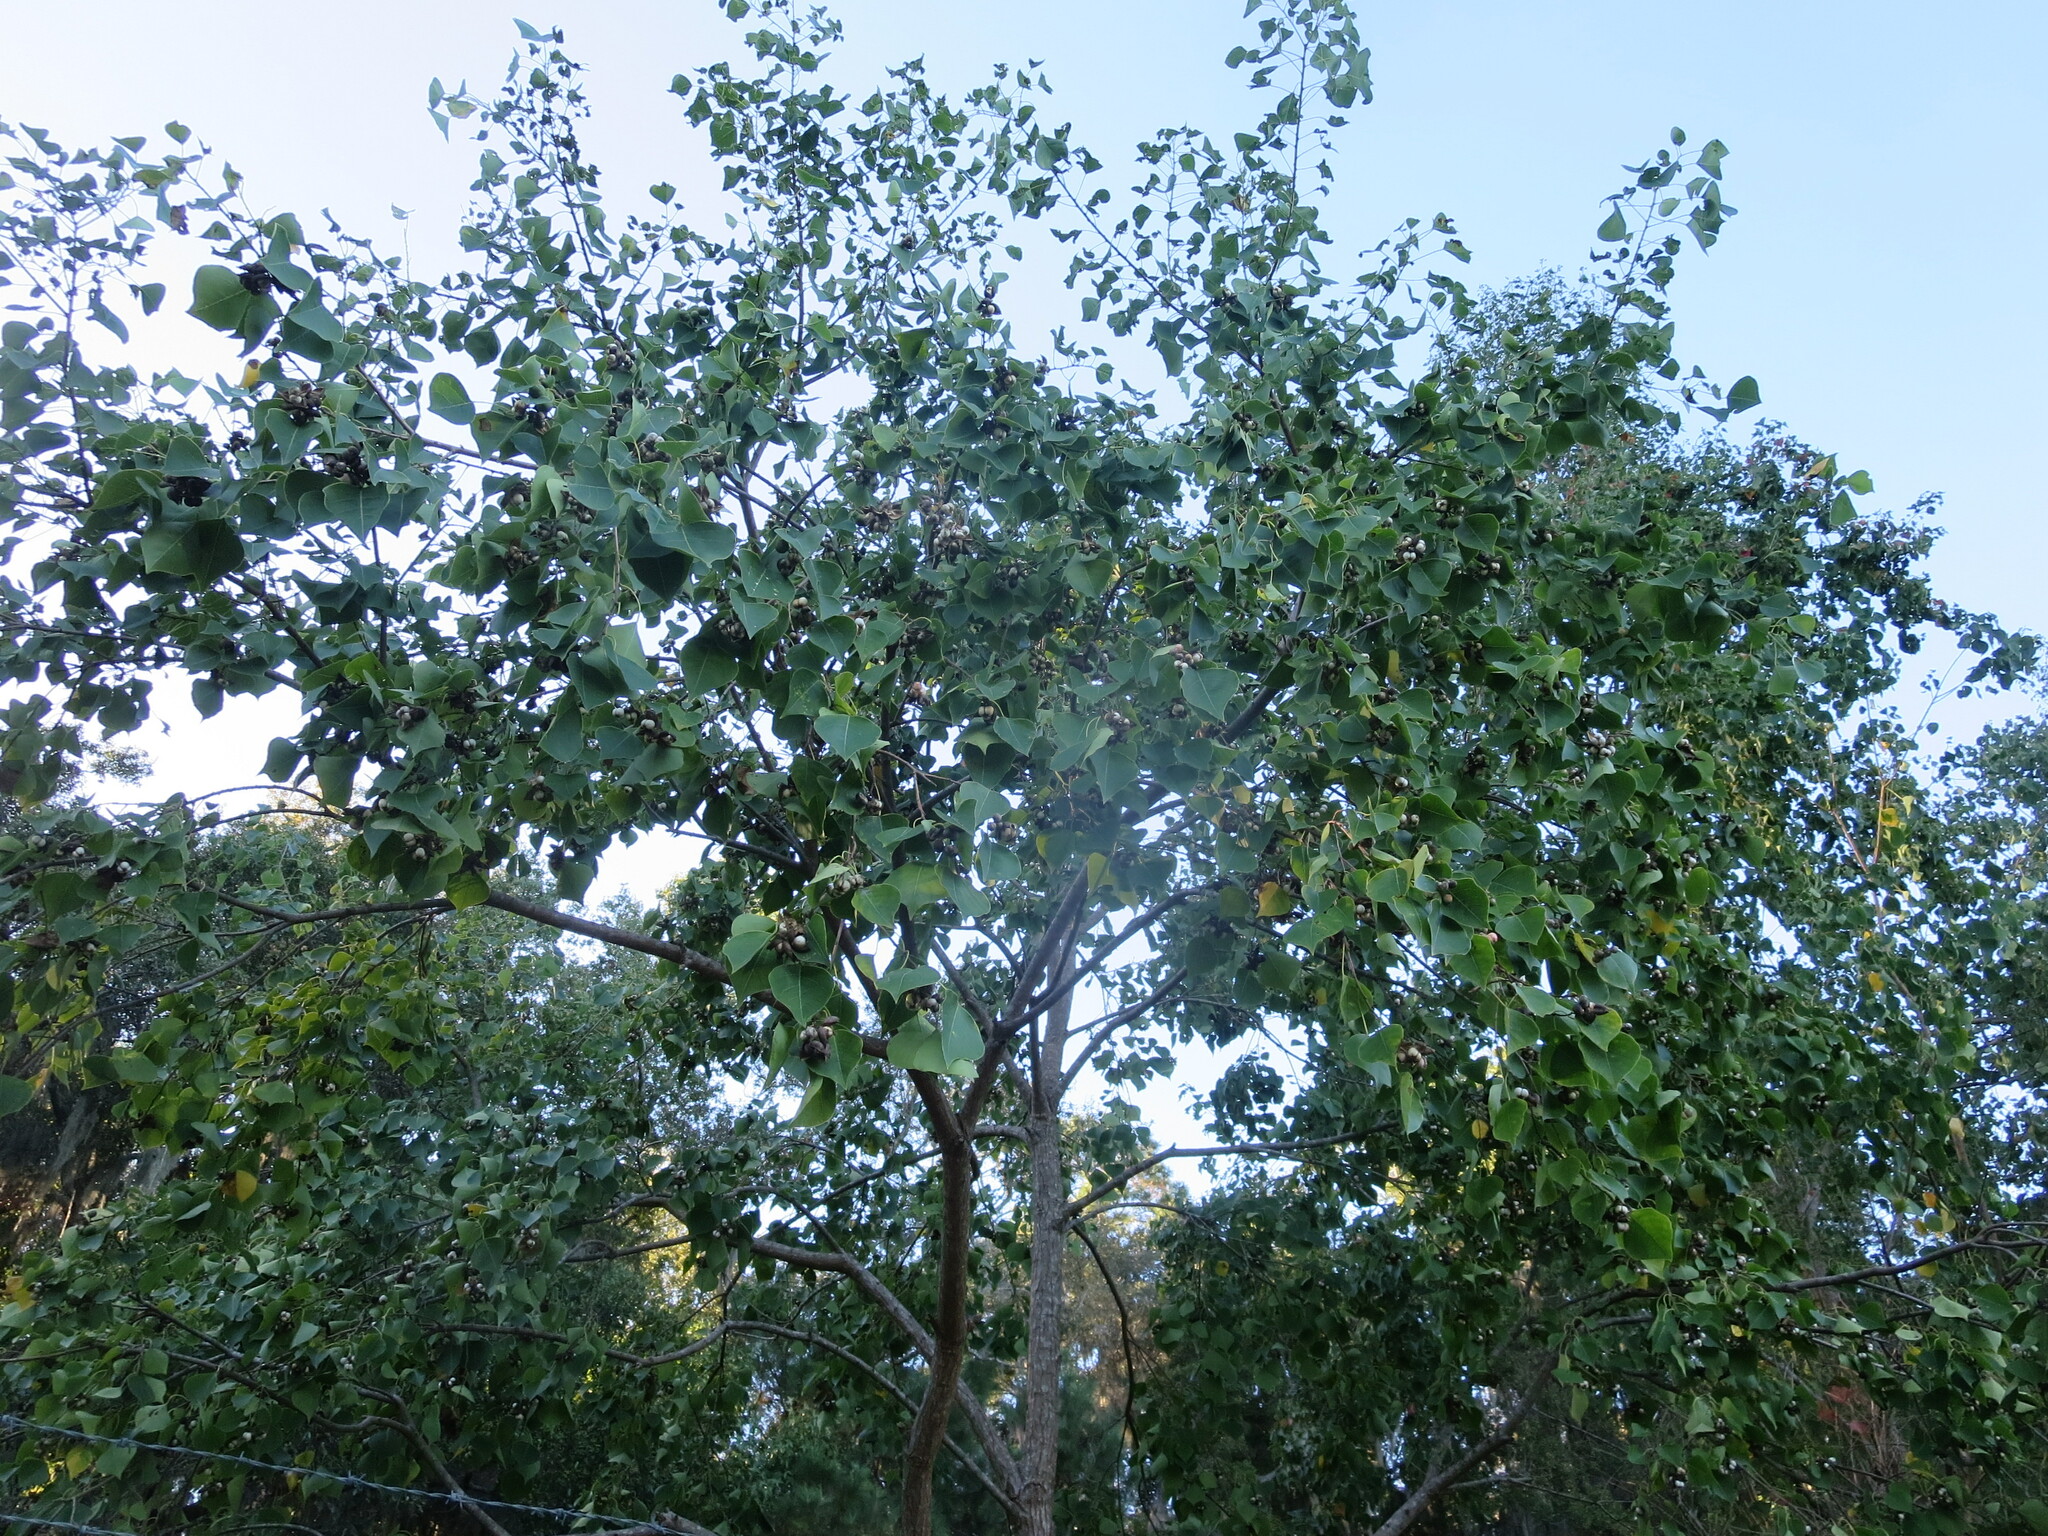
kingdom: Plantae
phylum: Tracheophyta
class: Magnoliopsida
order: Malpighiales
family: Euphorbiaceae
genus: Triadica
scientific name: Triadica sebifera
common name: Chinese tallow
